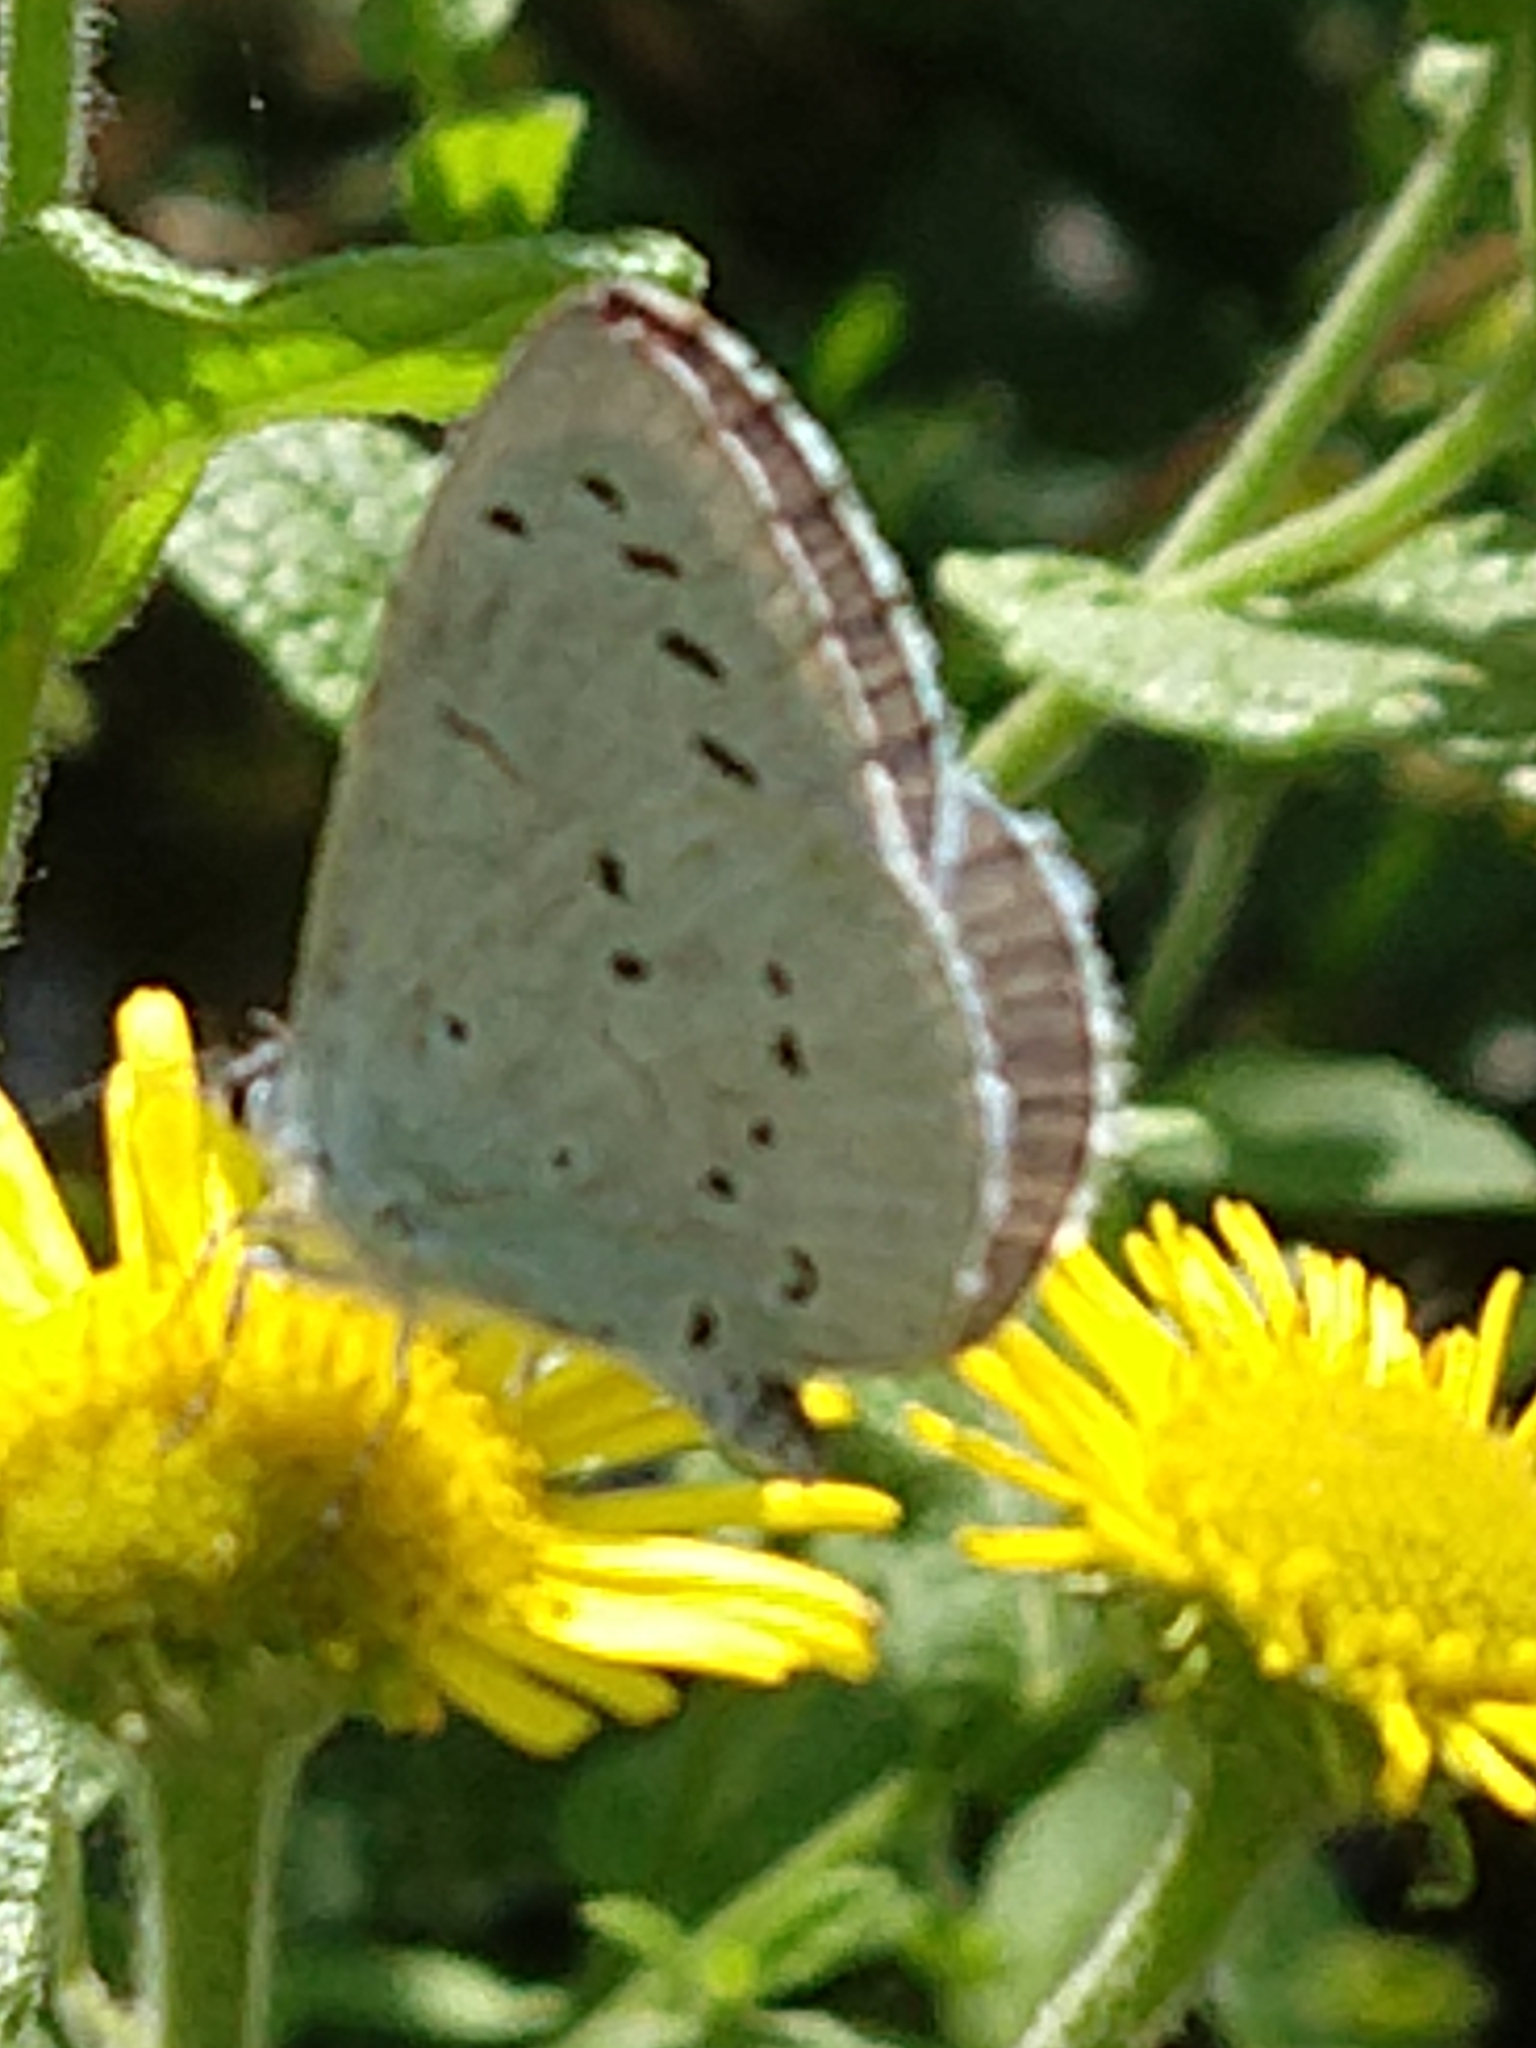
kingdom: Animalia
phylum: Arthropoda
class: Insecta
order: Lepidoptera
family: Lycaenidae
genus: Celastrina
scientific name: Celastrina argiolus
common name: Holly blue
